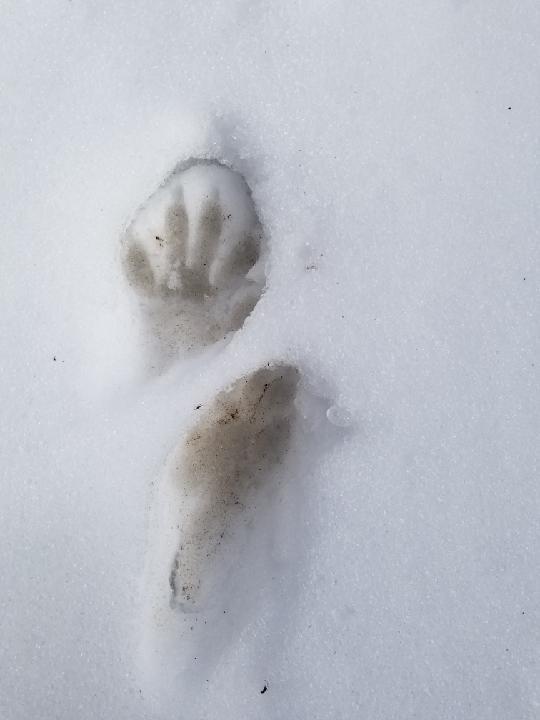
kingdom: Animalia
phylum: Chordata
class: Mammalia
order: Carnivora
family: Procyonidae
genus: Procyon
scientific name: Procyon lotor
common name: Raccoon
